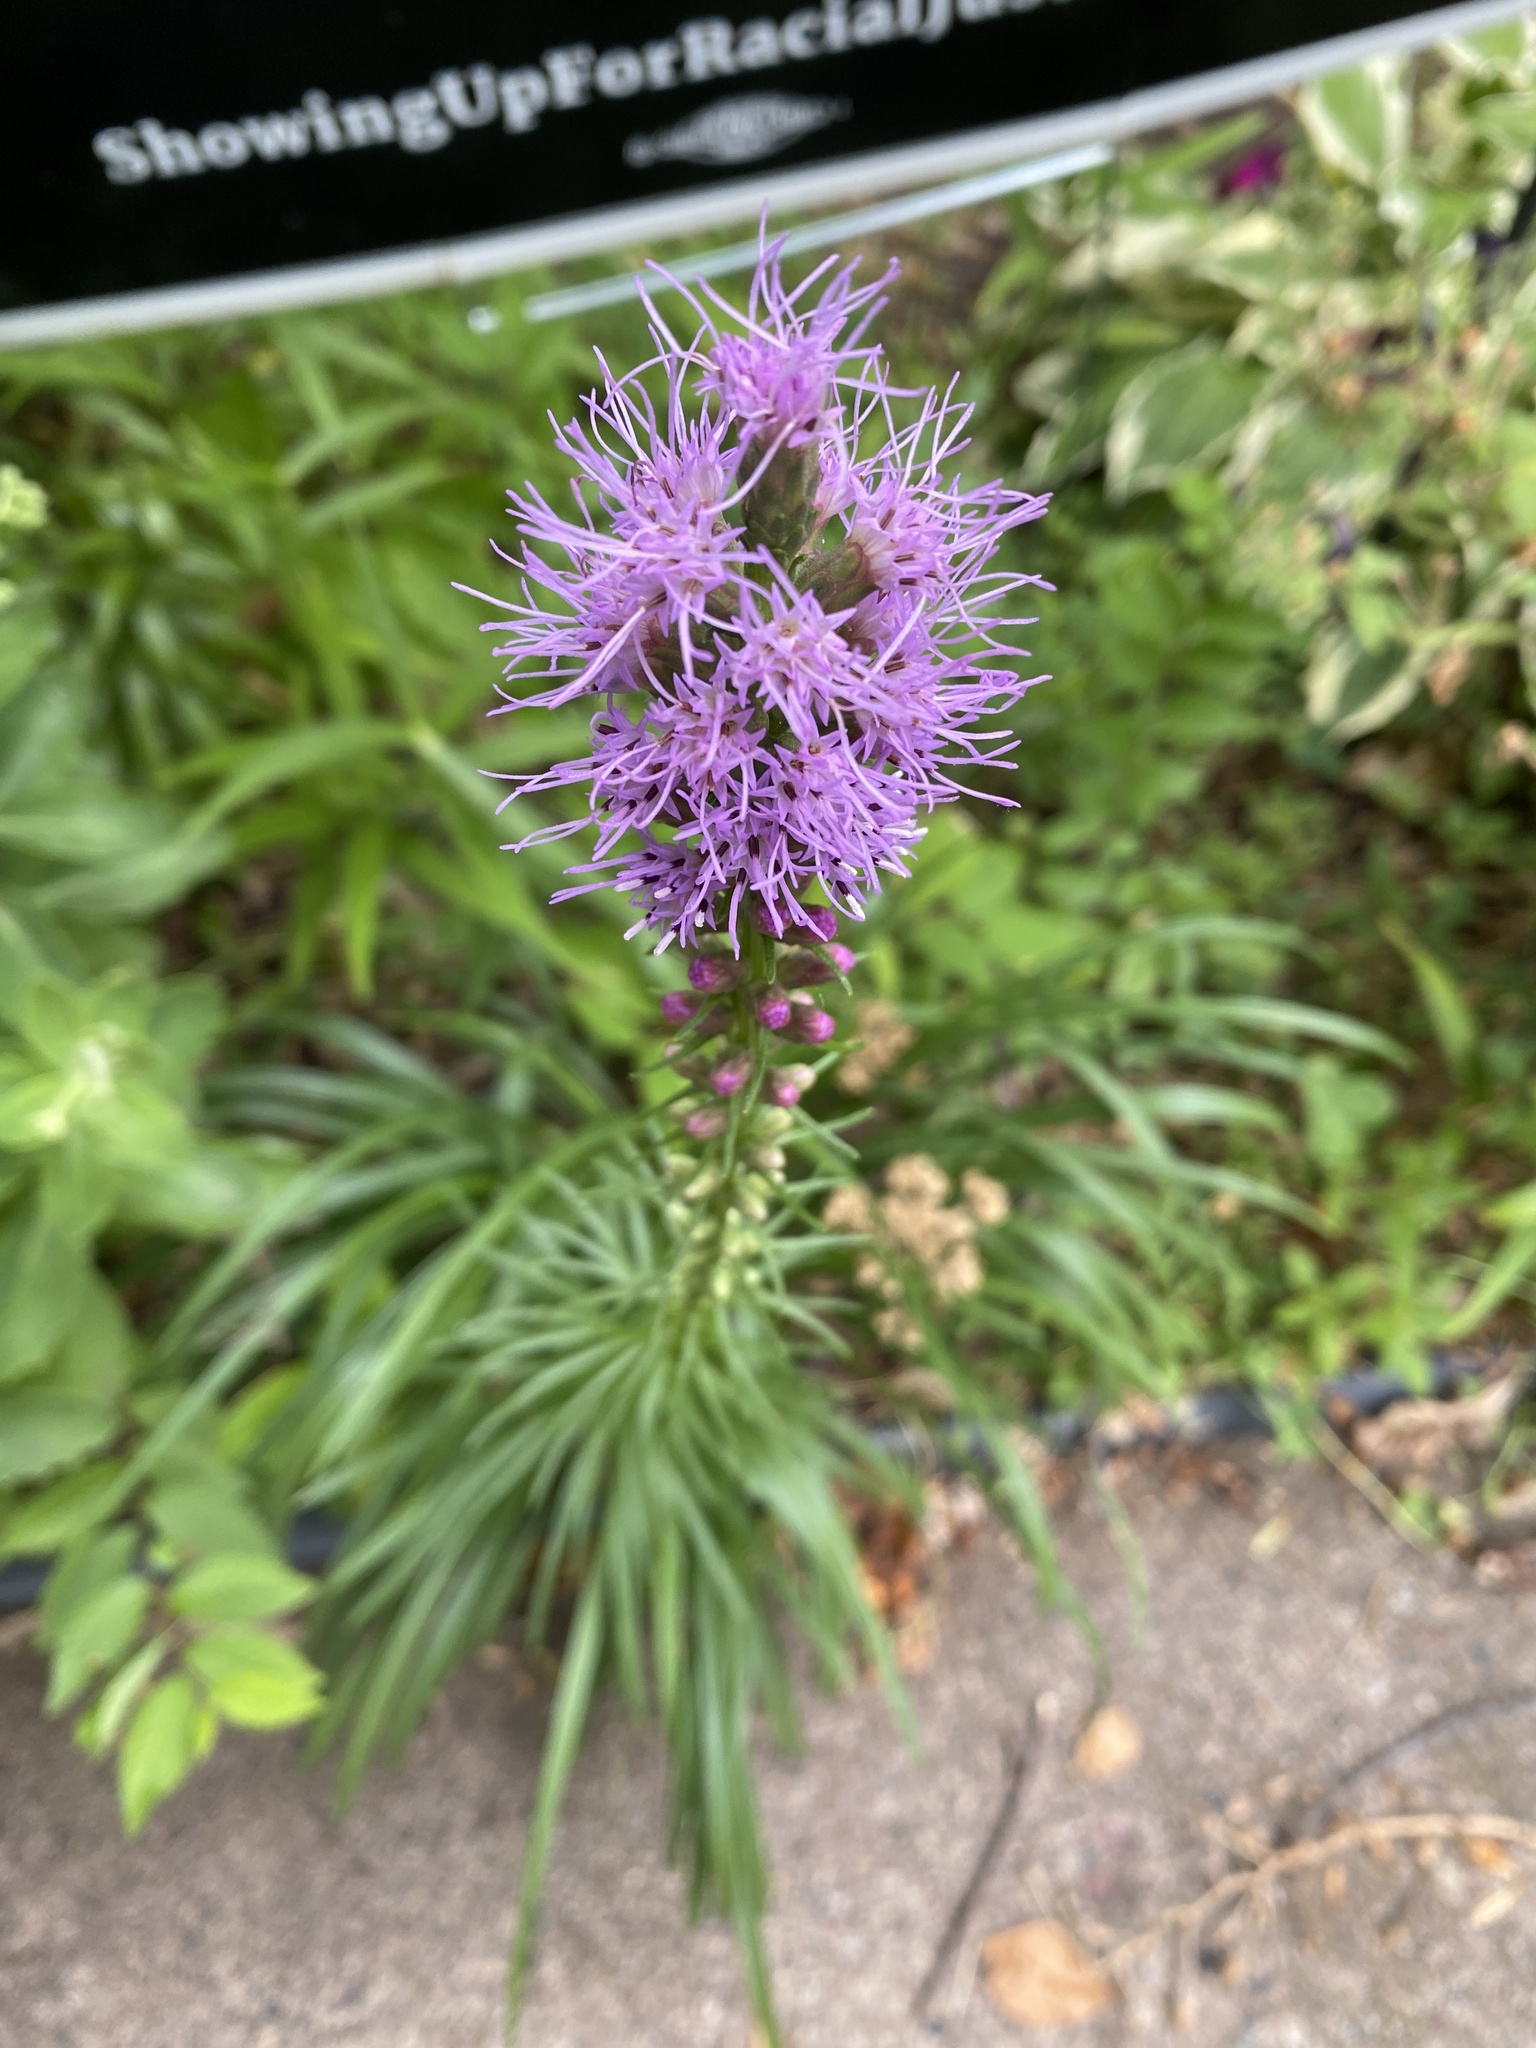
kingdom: Plantae
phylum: Tracheophyta
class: Magnoliopsida
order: Asterales
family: Asteraceae
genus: Liatris
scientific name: Liatris spicata
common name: Florist gayfeather
